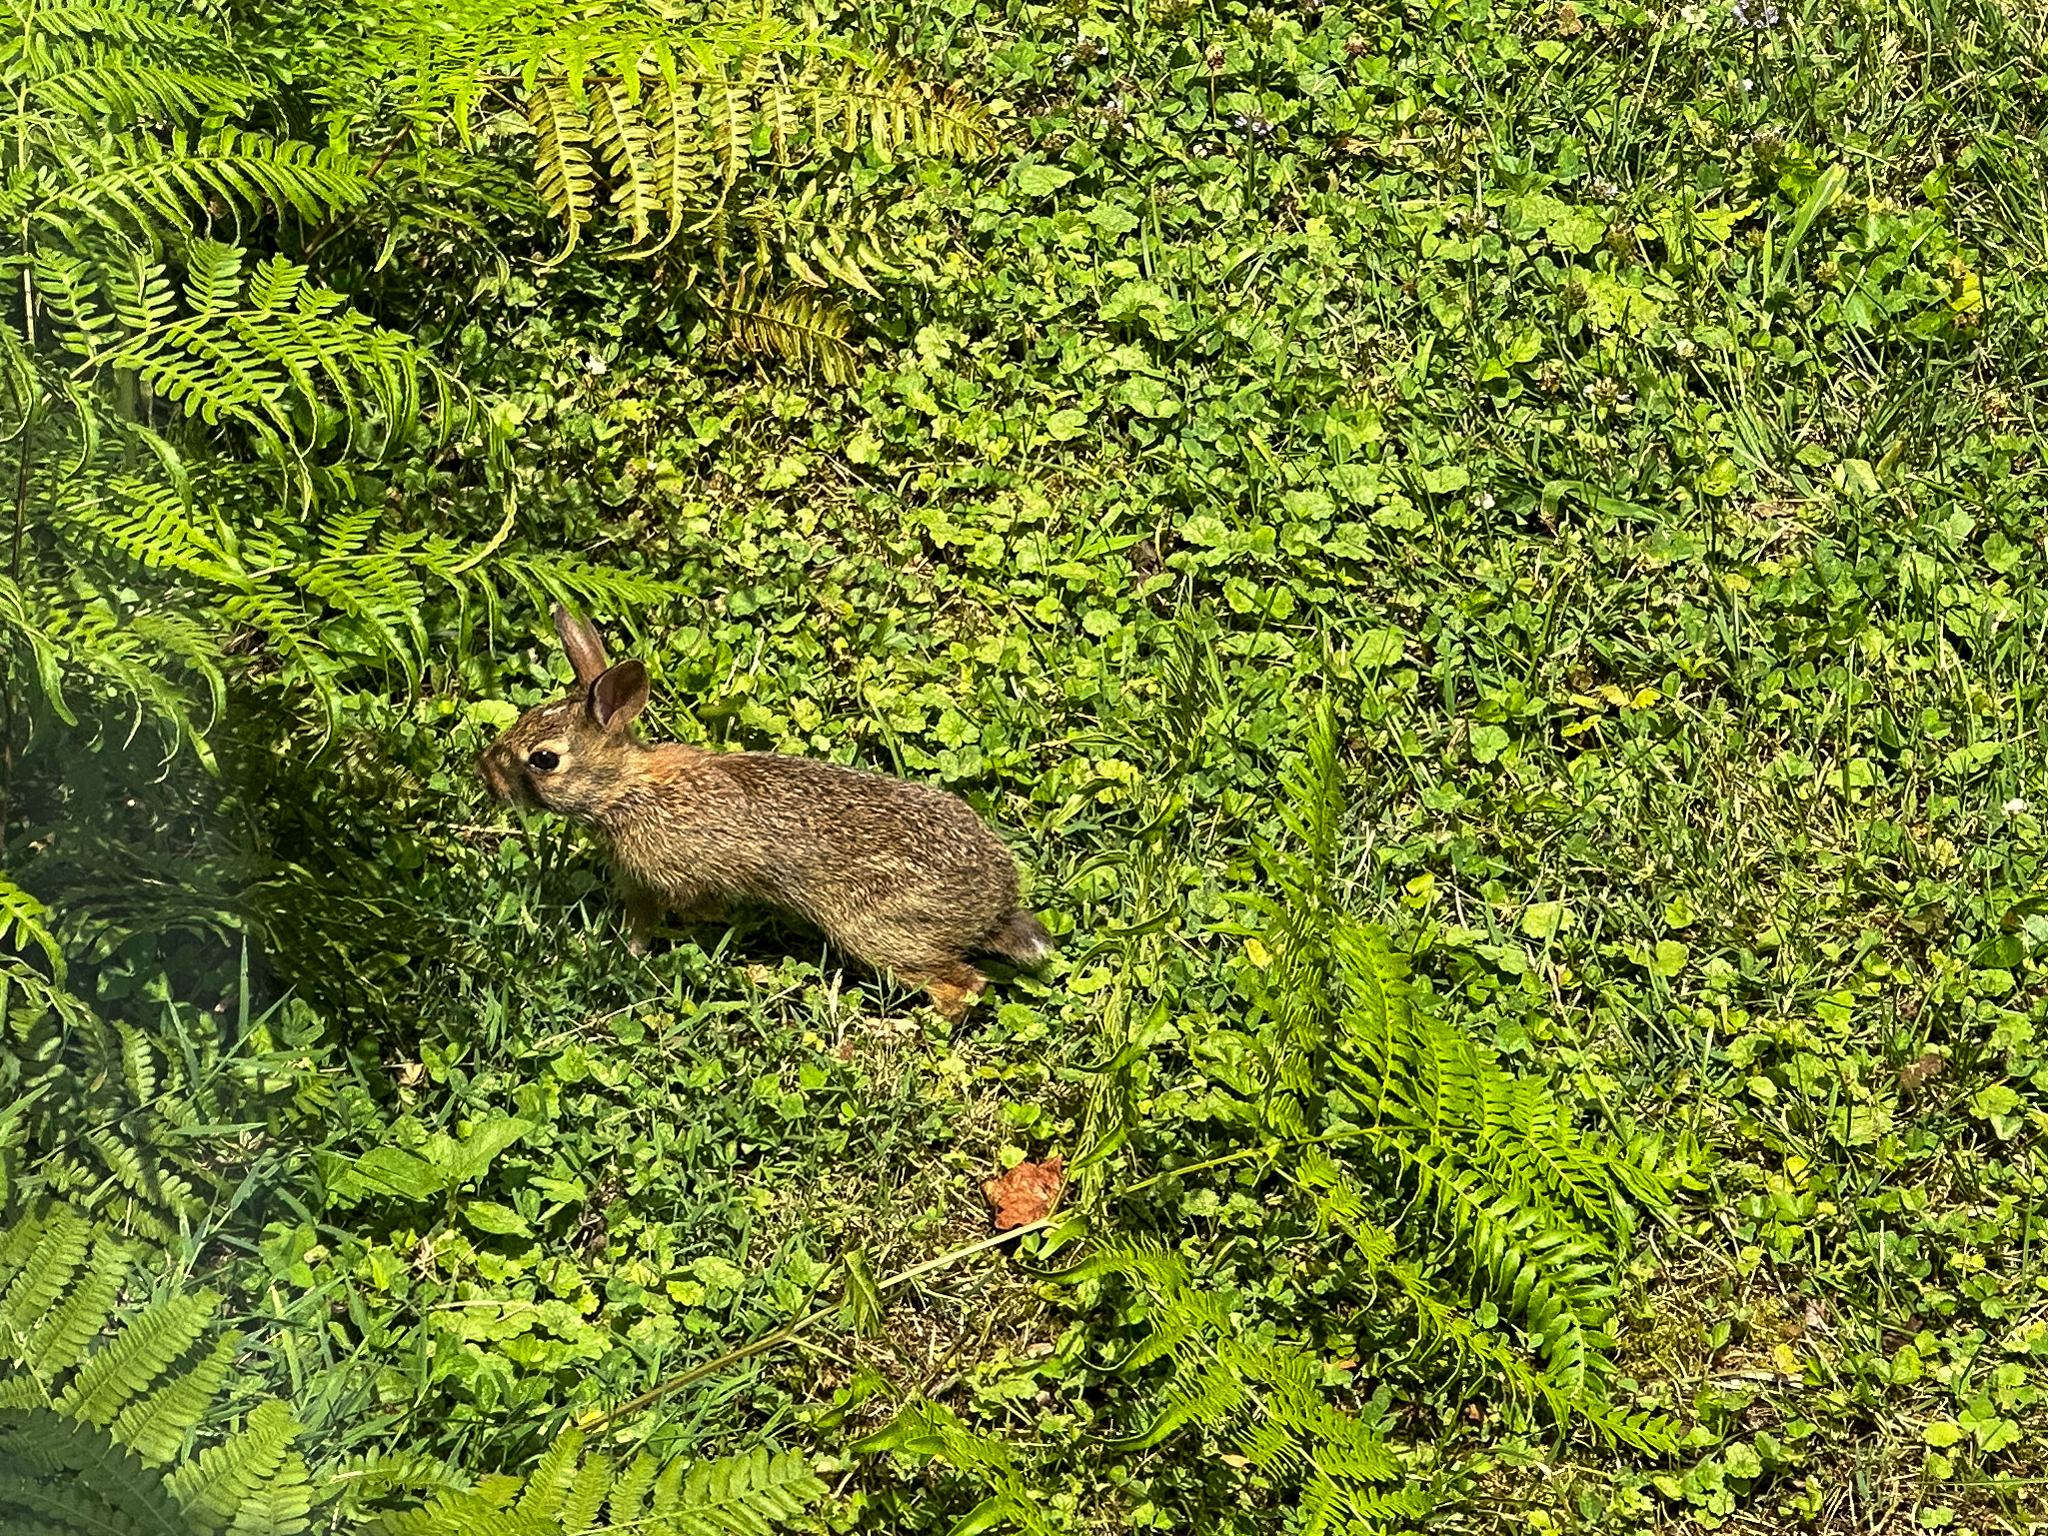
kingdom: Animalia
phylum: Chordata
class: Mammalia
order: Lagomorpha
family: Leporidae
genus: Sylvilagus
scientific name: Sylvilagus floridanus
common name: Eastern cottontail
